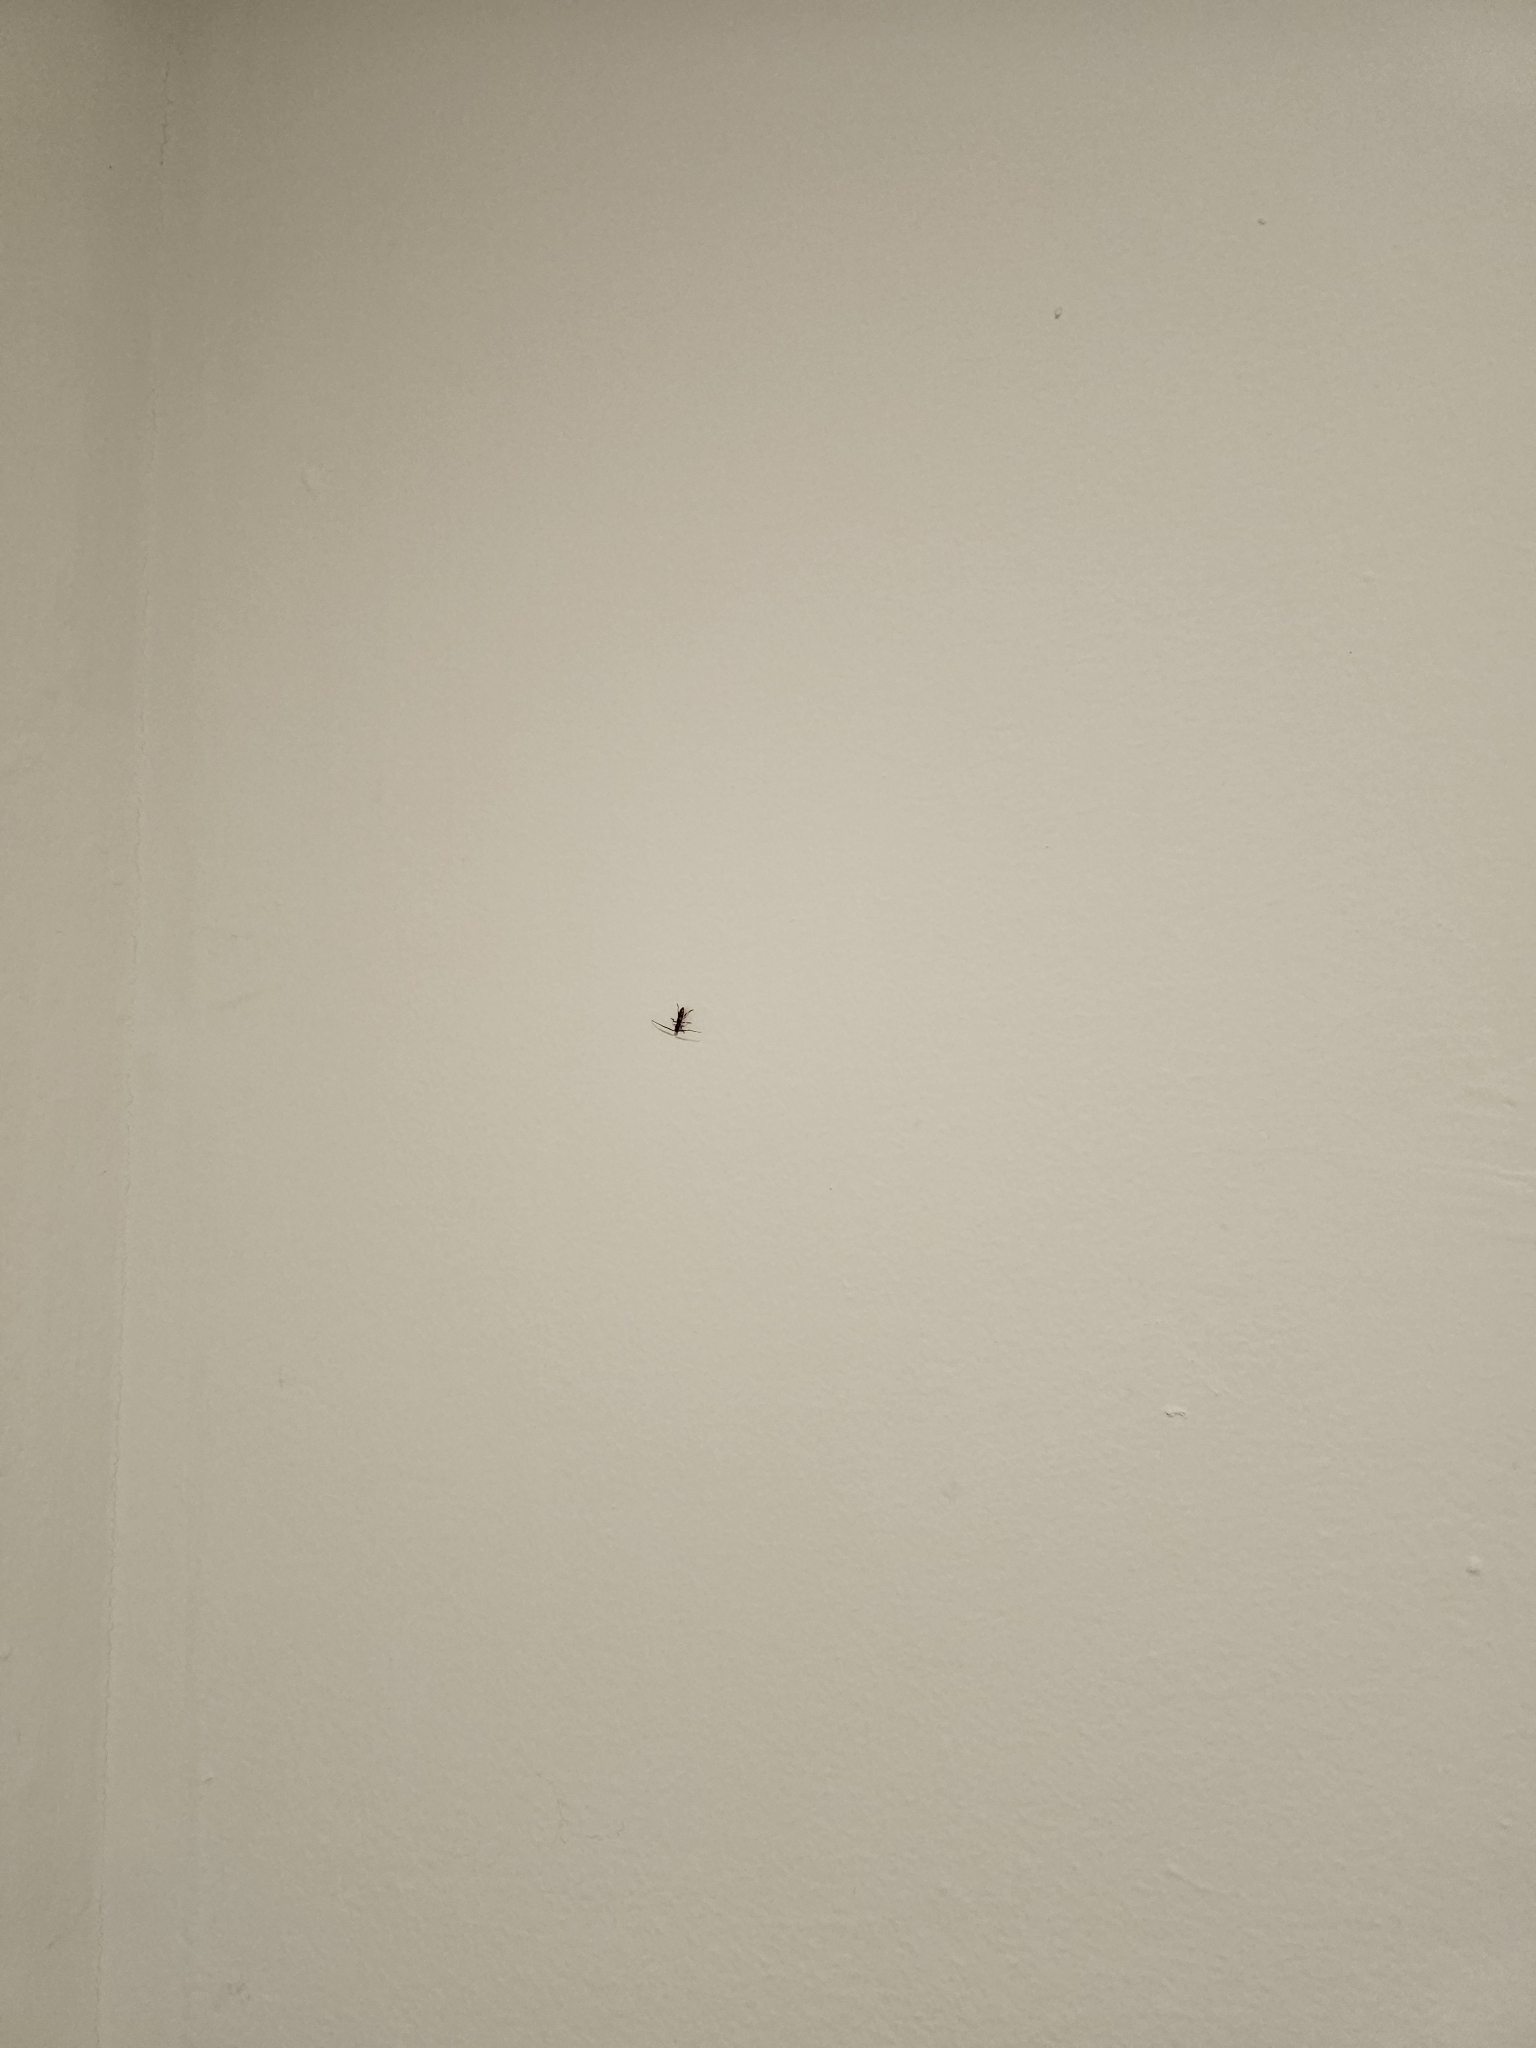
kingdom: Animalia
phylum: Arthropoda
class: Insecta
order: Coleoptera
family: Cerambycidae
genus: Heterachthes
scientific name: Heterachthes quadrimaculatus
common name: Four-spotted hickory borer
